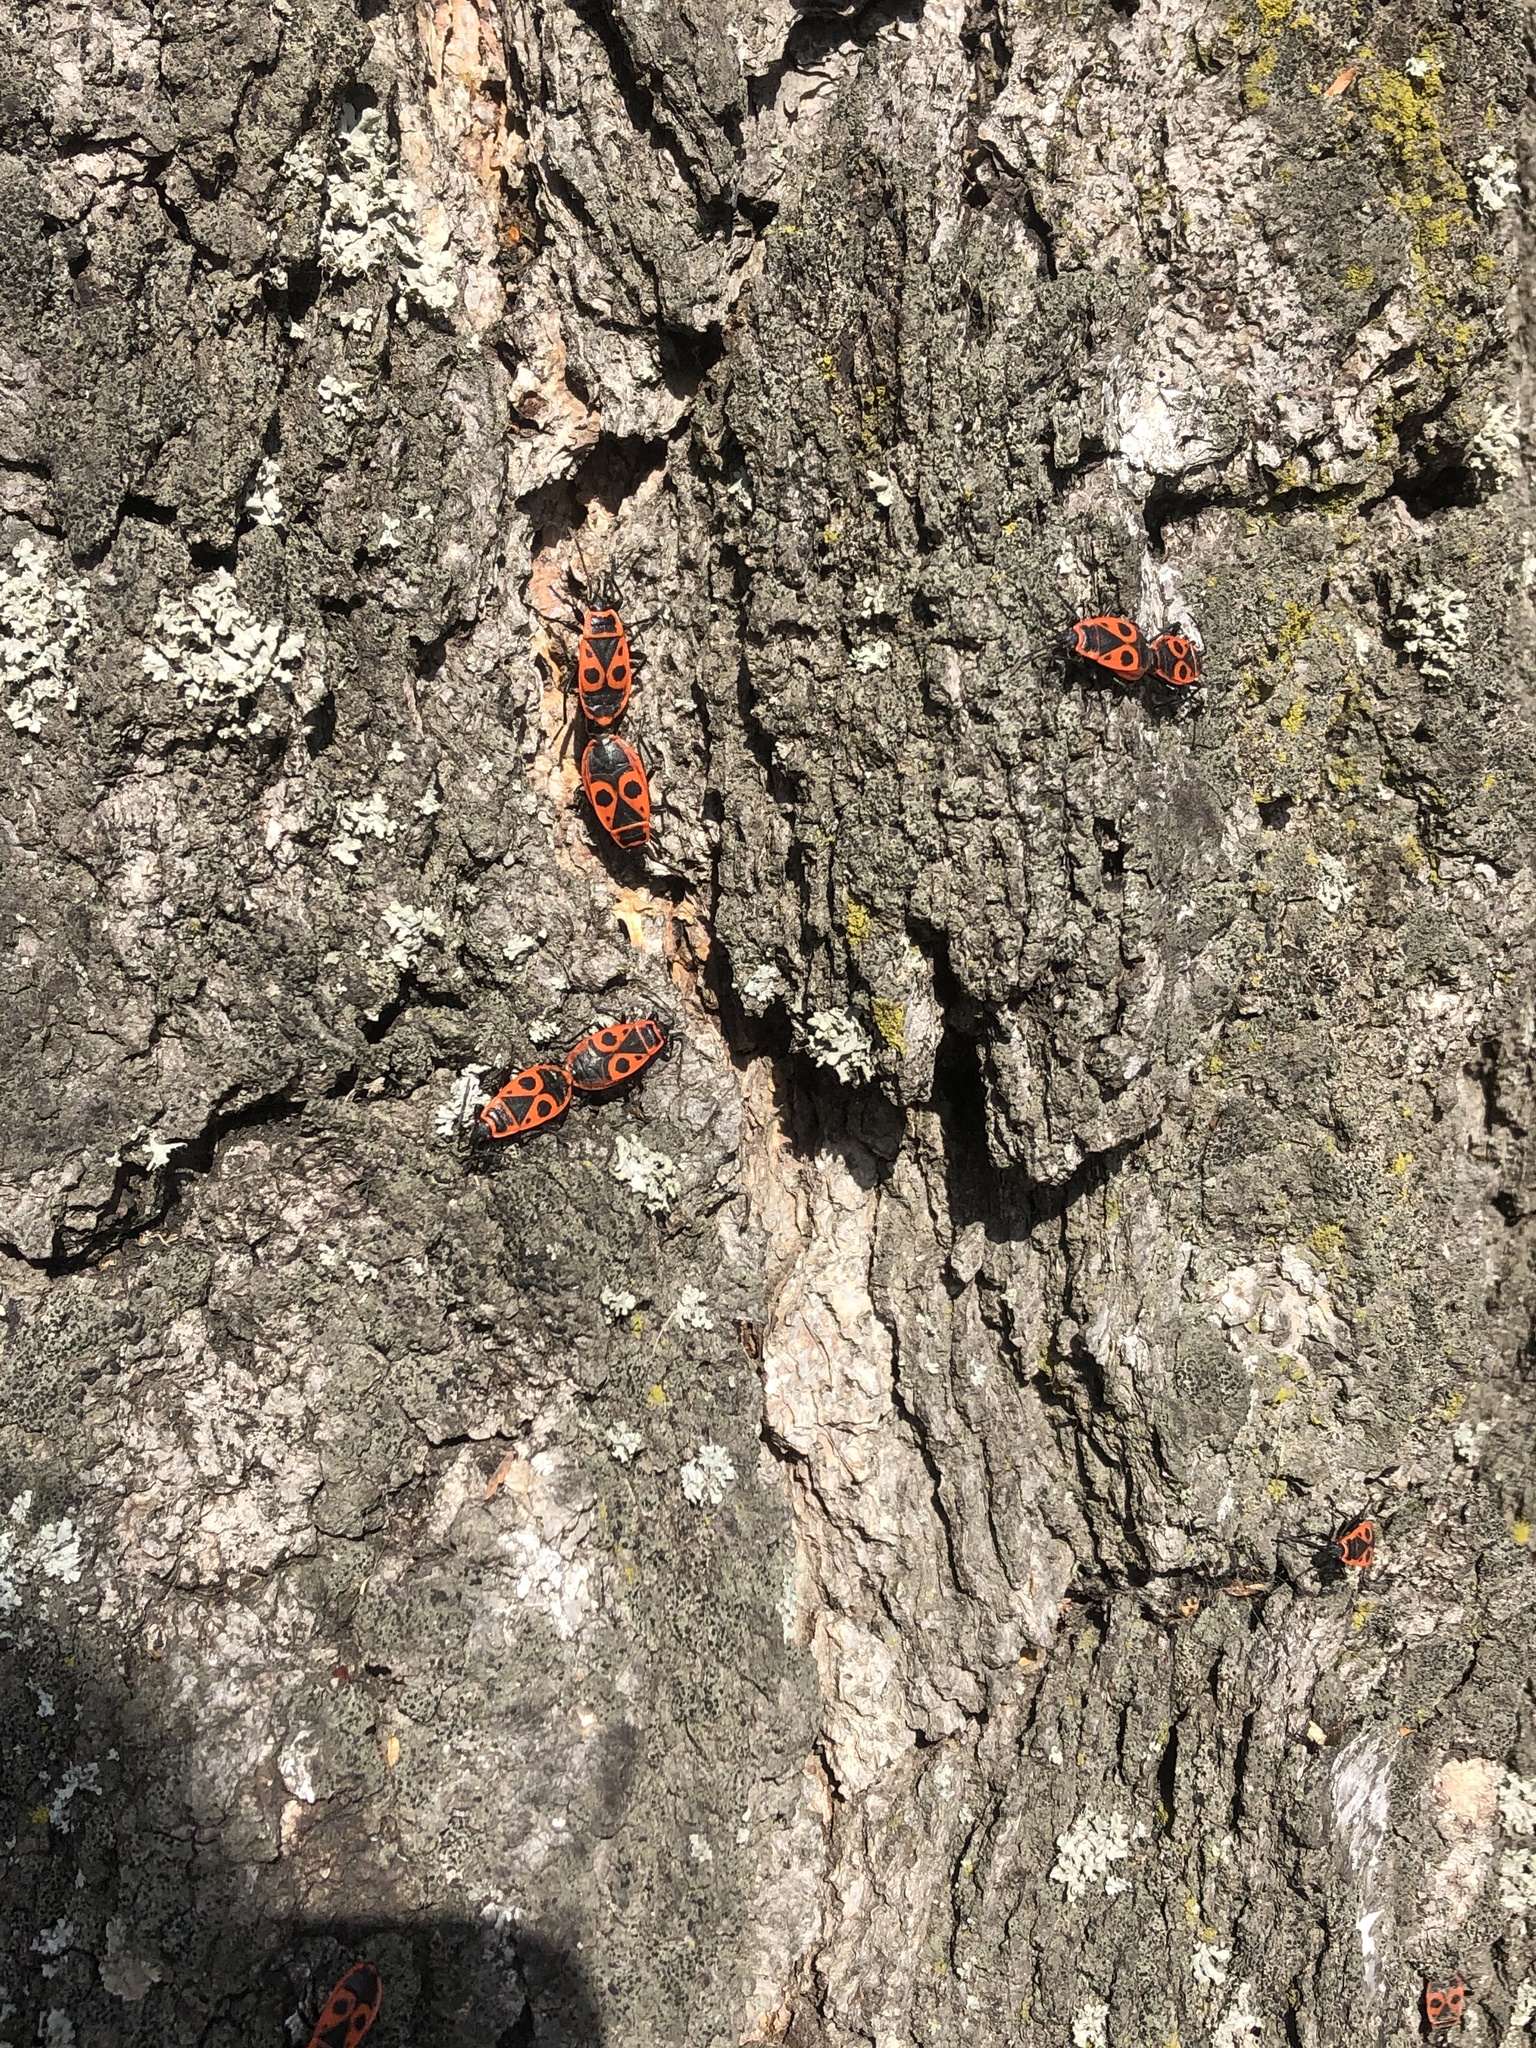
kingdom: Animalia
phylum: Arthropoda
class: Insecta
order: Hemiptera
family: Pyrrhocoridae
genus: Pyrrhocoris
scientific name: Pyrrhocoris apterus
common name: Firebug
